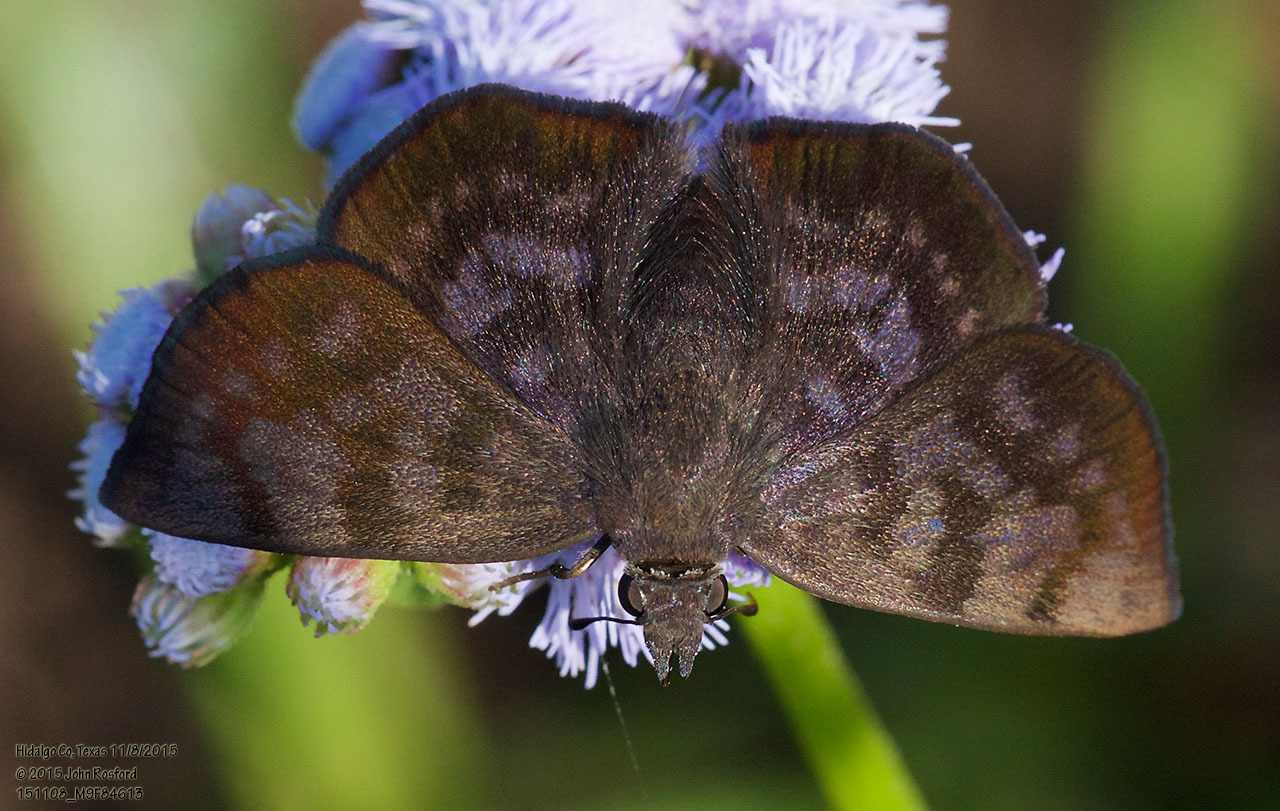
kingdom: Animalia
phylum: Arthropoda
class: Insecta
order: Lepidoptera
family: Hesperiidae
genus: Pellicia
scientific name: Pellicia costimacula
